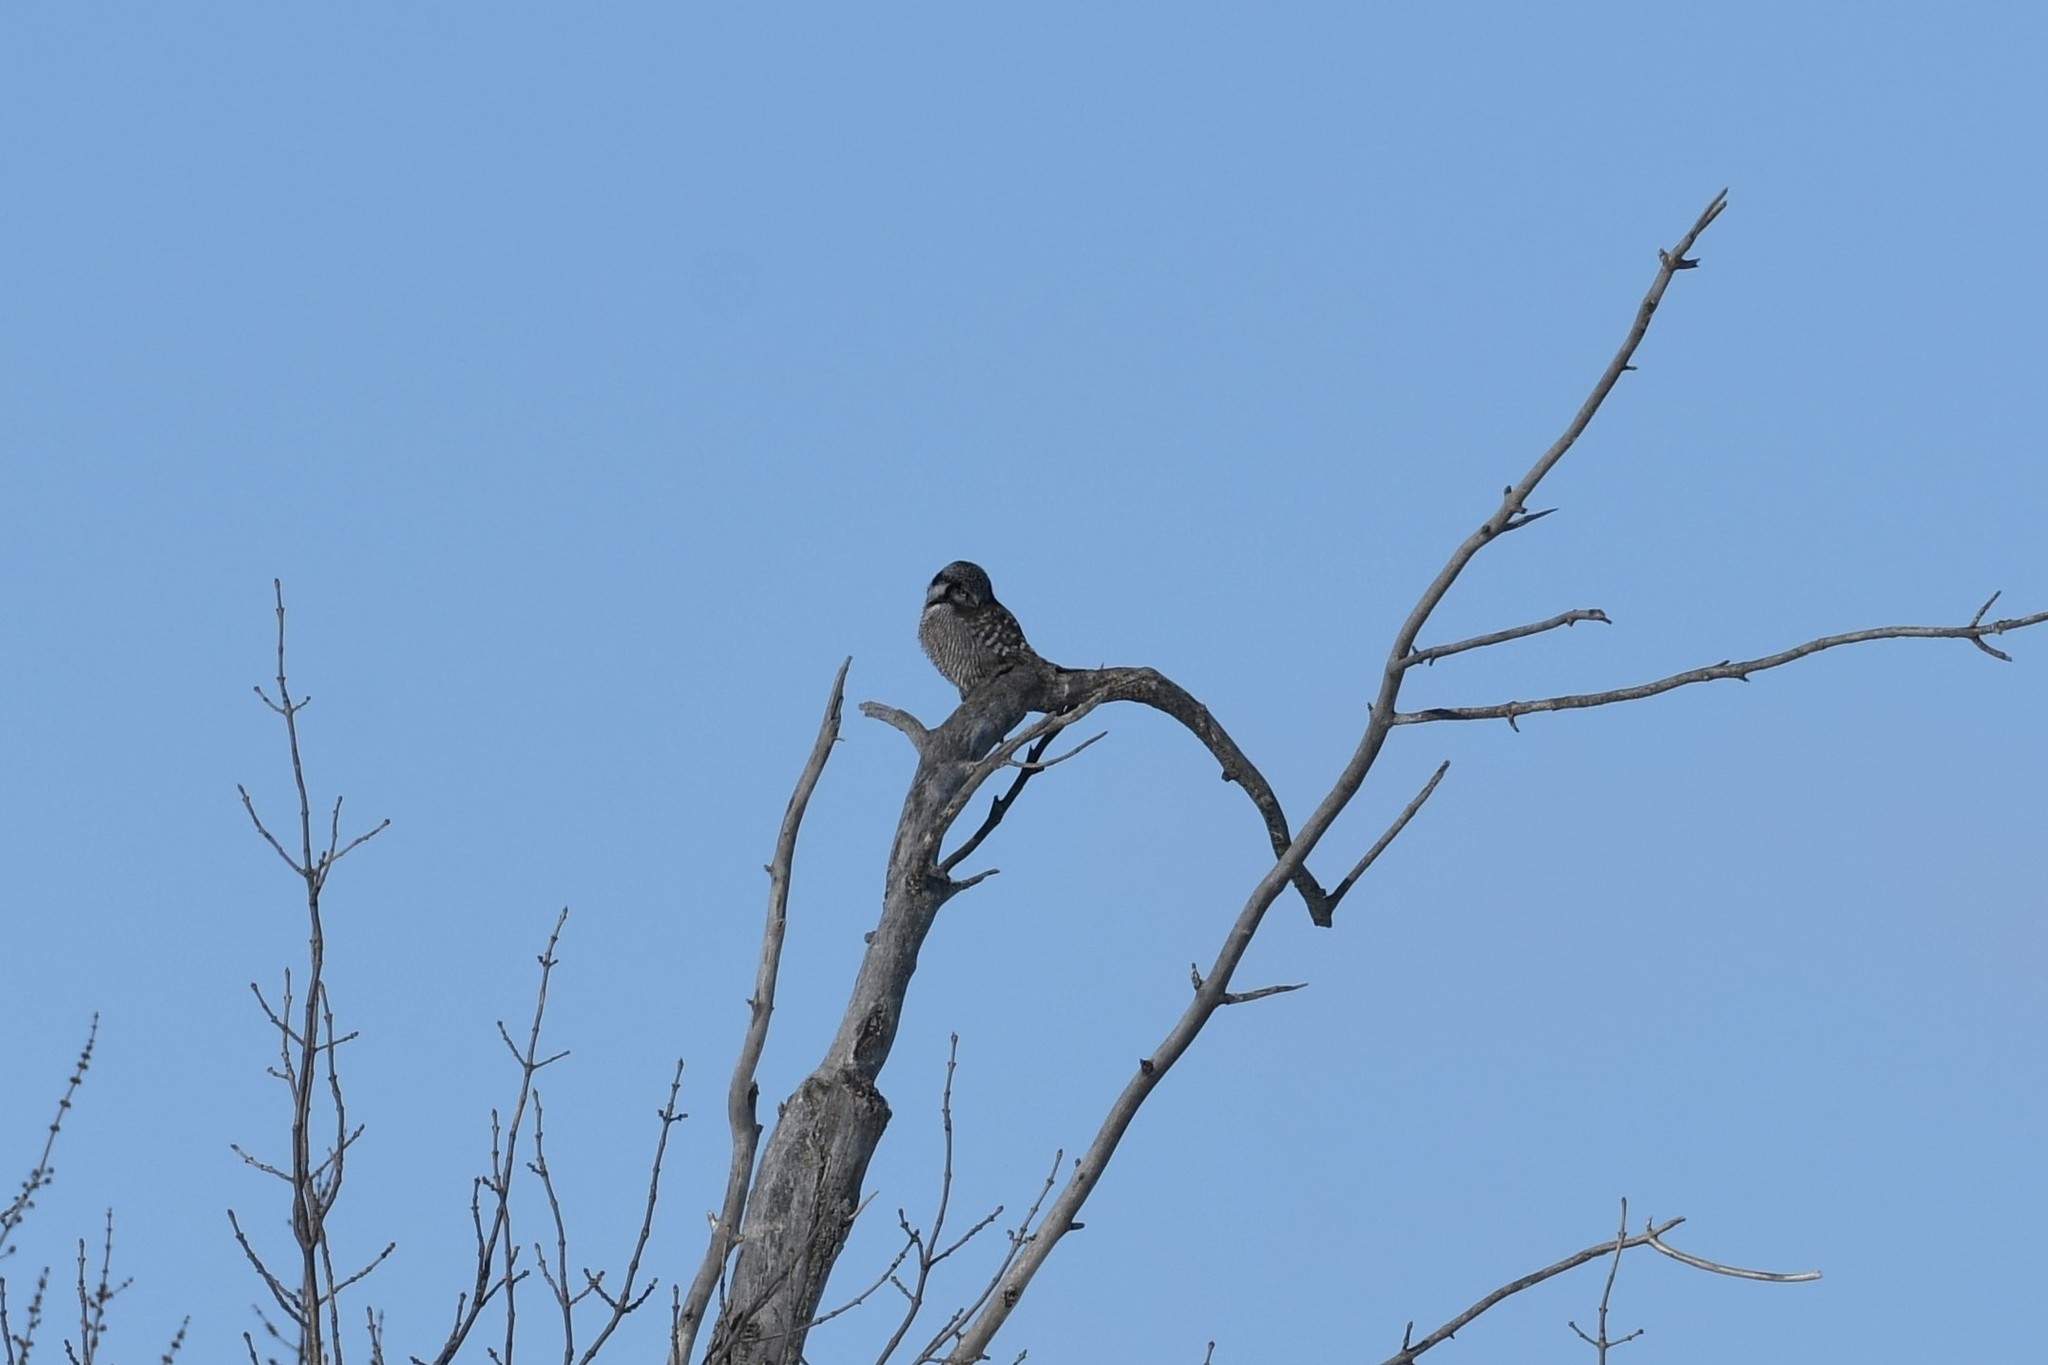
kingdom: Animalia
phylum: Chordata
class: Aves
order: Strigiformes
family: Strigidae
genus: Surnia
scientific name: Surnia ulula
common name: Northern hawk-owl
